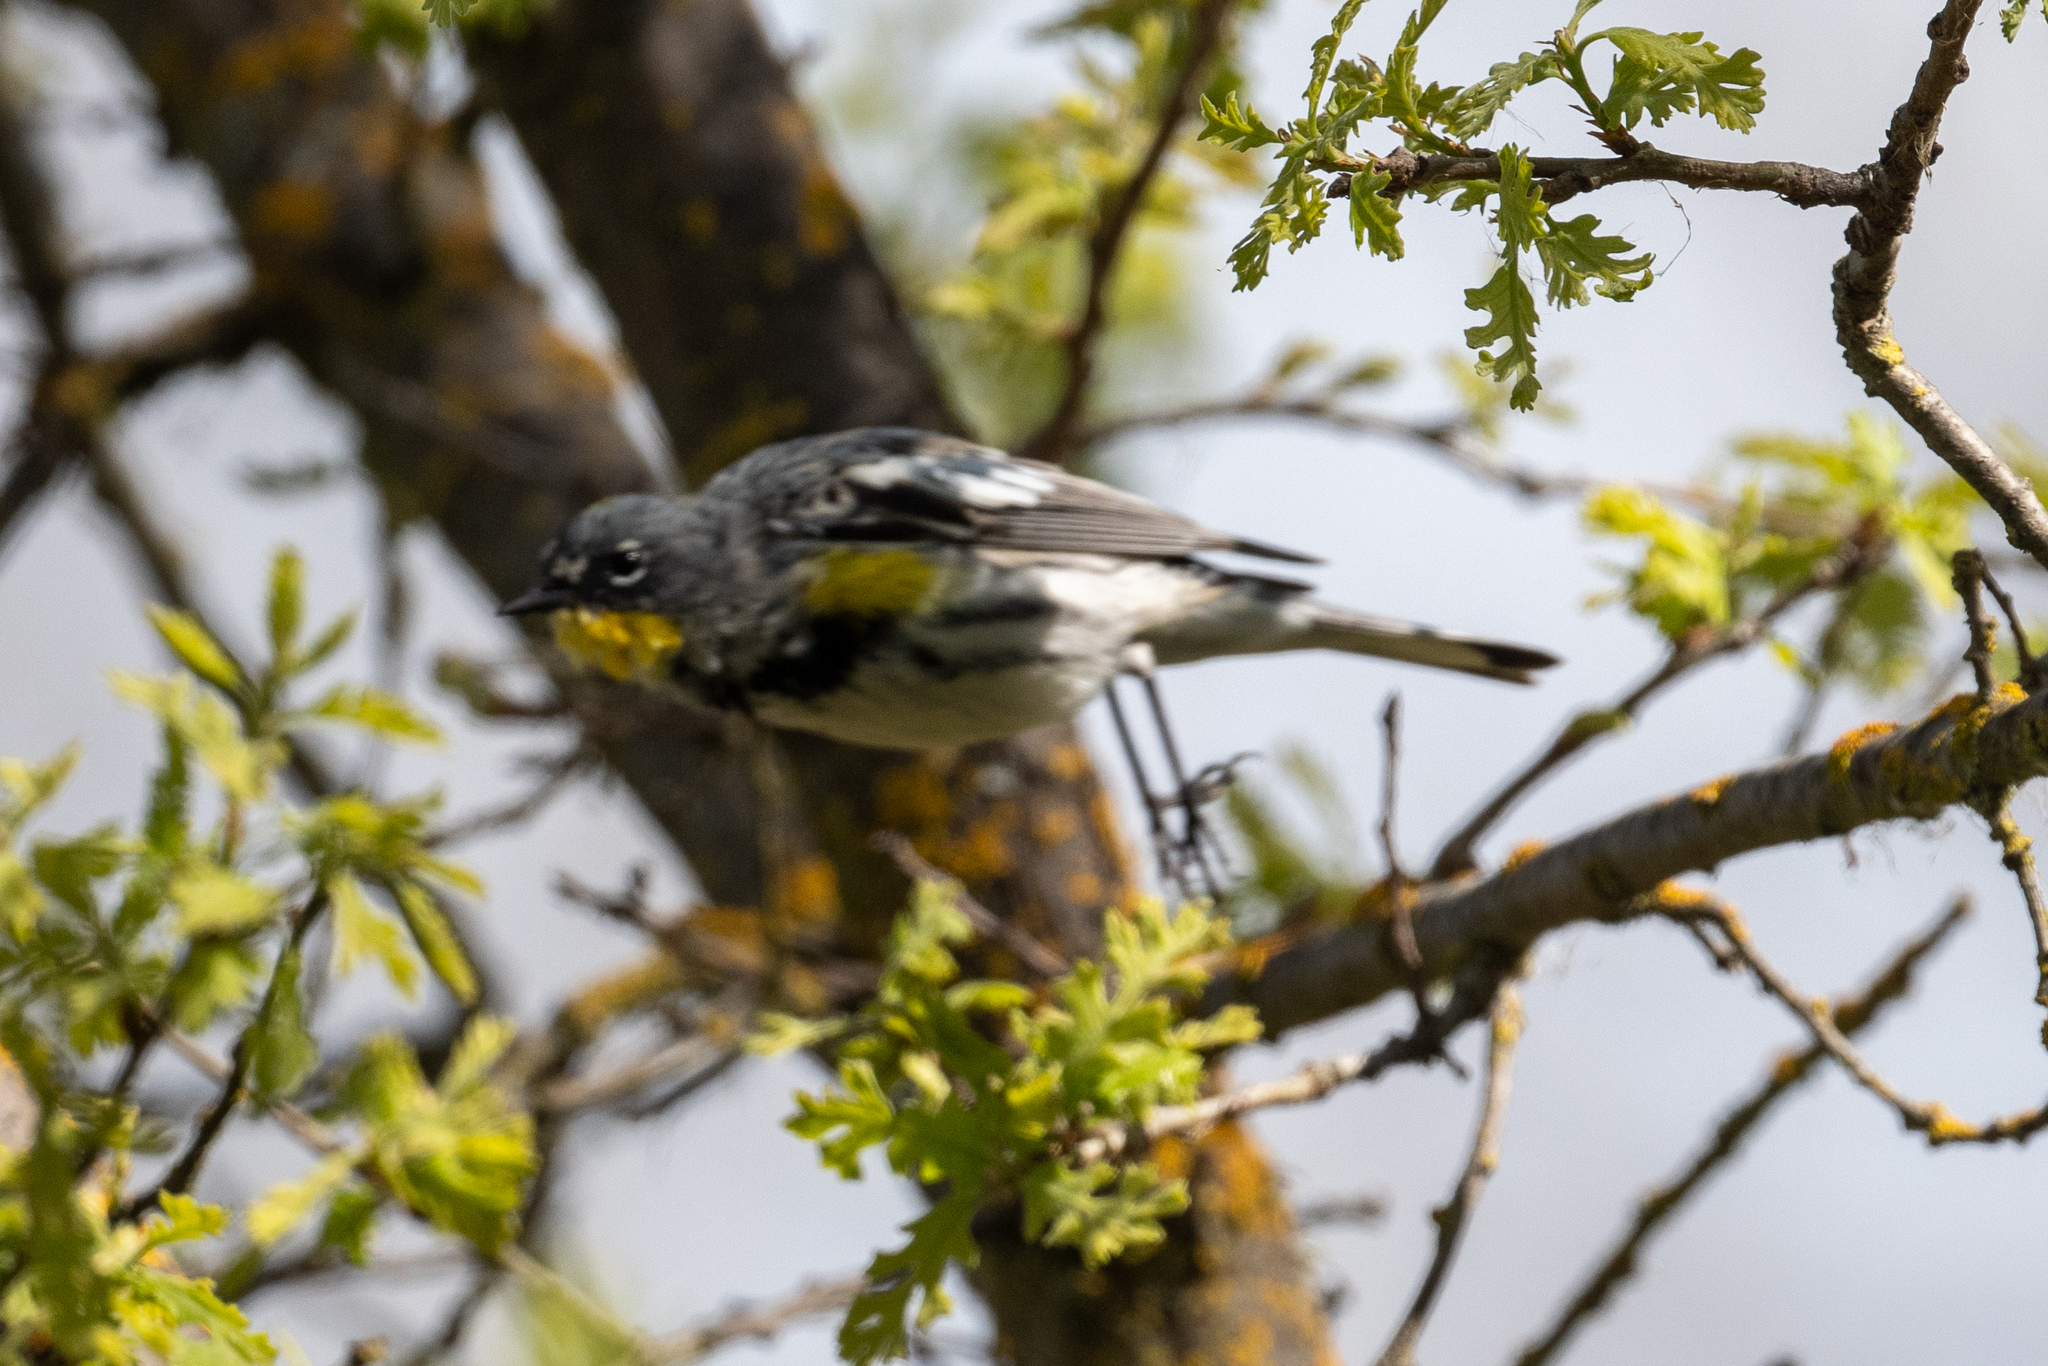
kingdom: Animalia
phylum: Chordata
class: Aves
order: Passeriformes
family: Parulidae
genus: Setophaga
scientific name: Setophaga coronata
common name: Myrtle warbler
